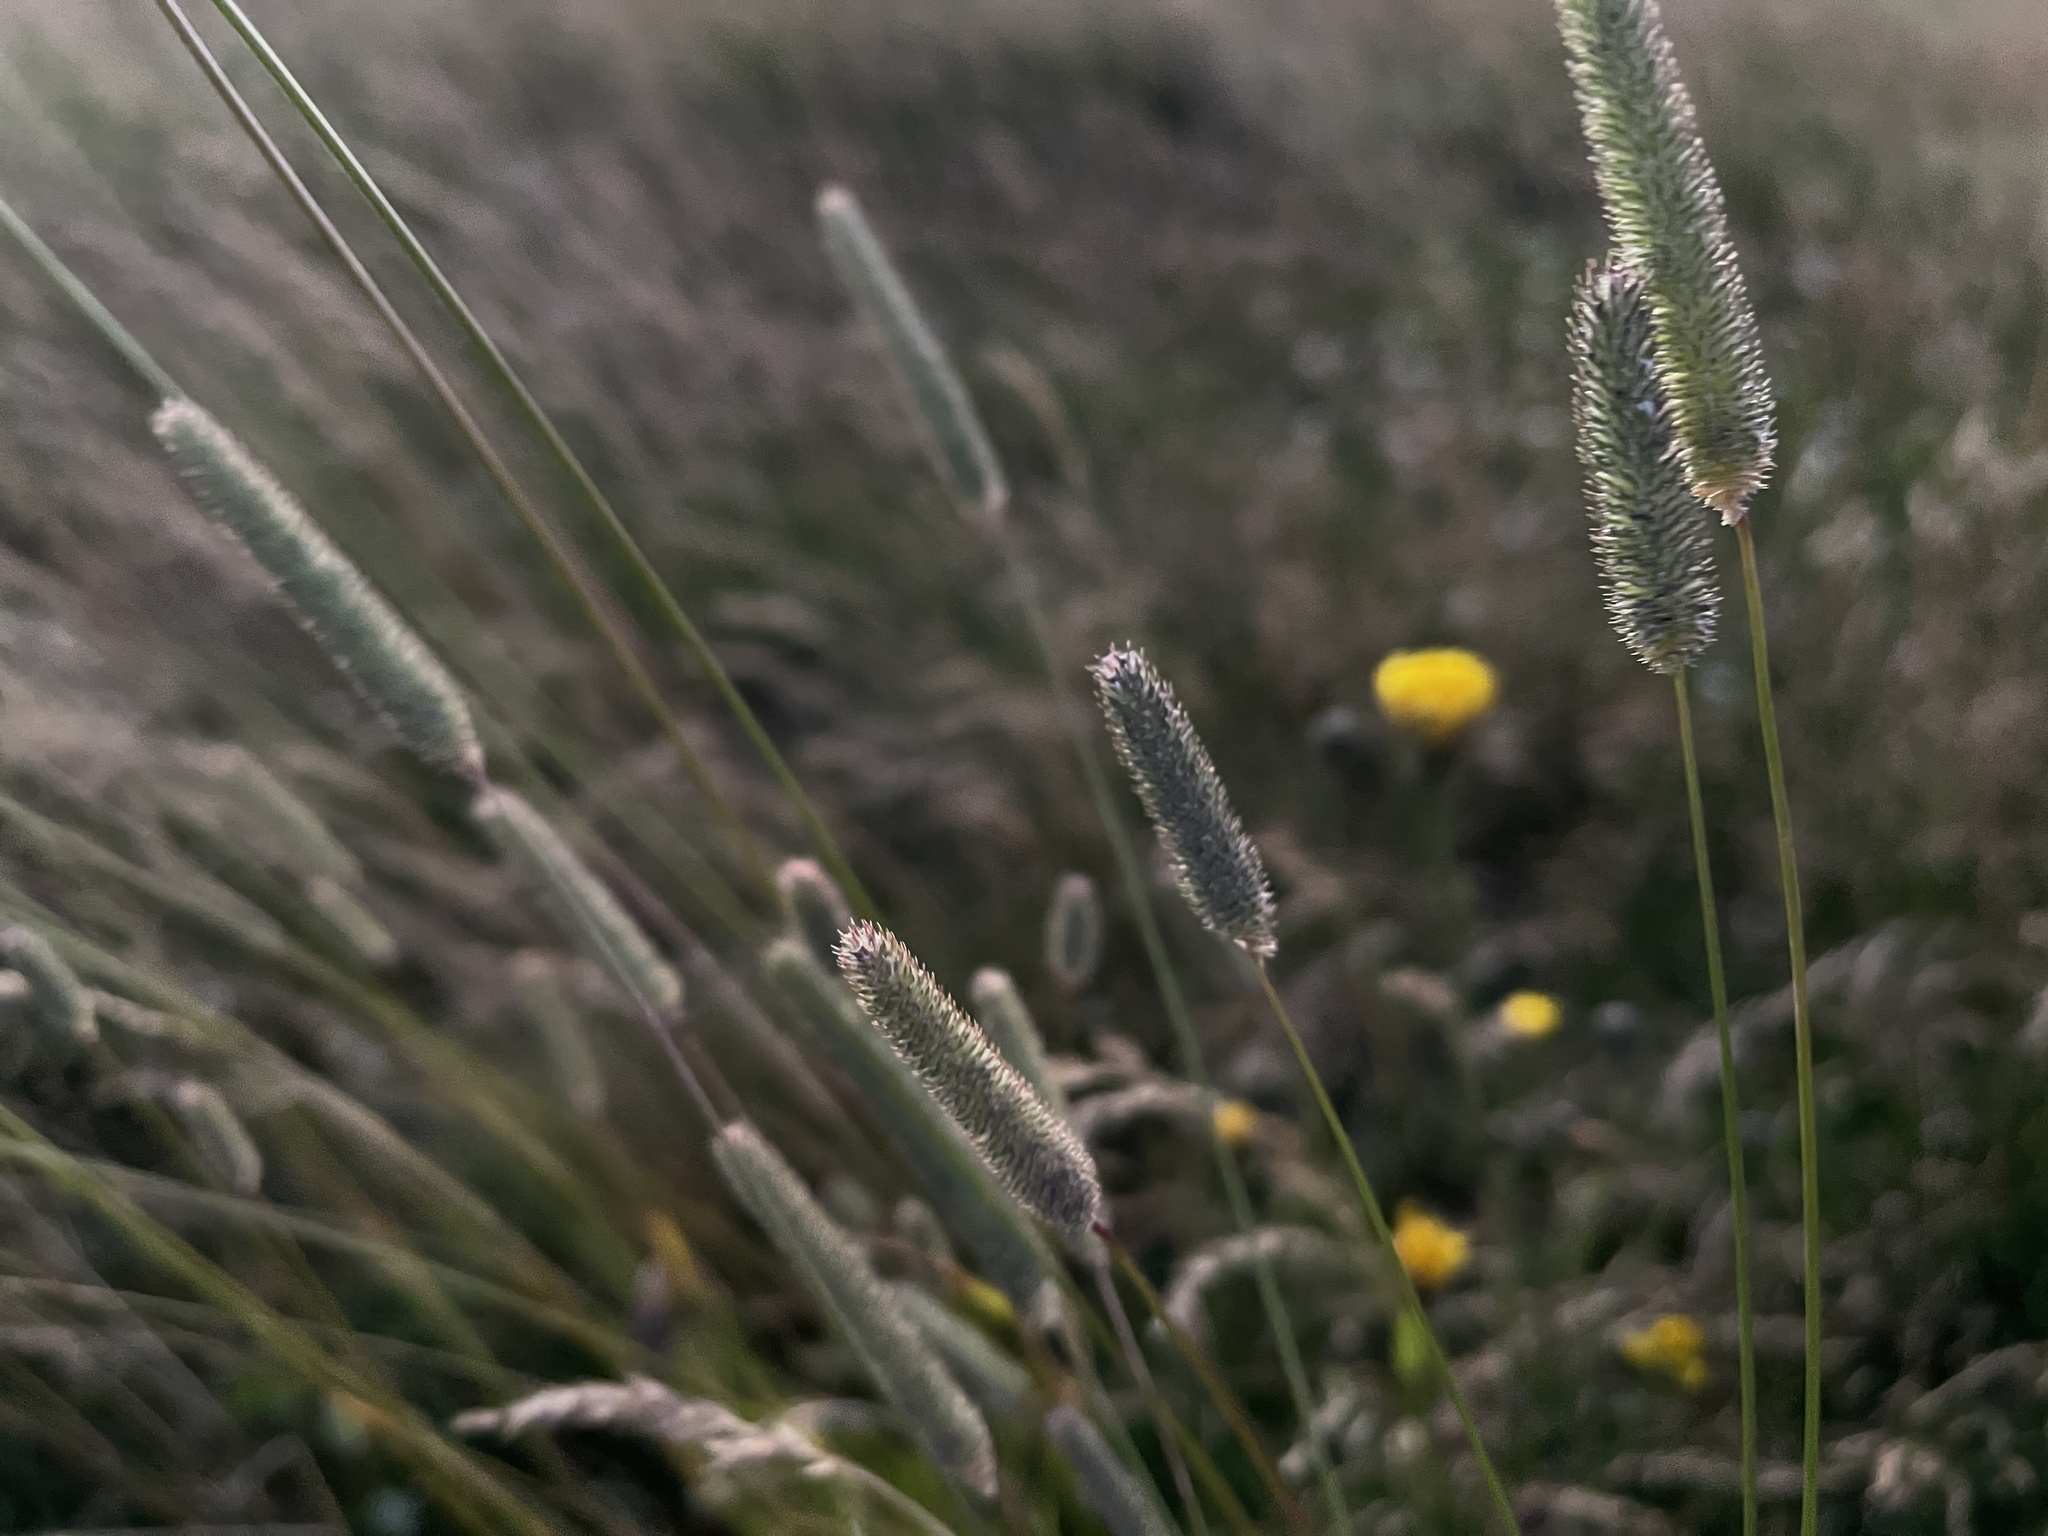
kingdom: Plantae
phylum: Tracheophyta
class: Liliopsida
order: Poales
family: Poaceae
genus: Phleum
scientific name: Phleum pratense
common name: Timothy grass
